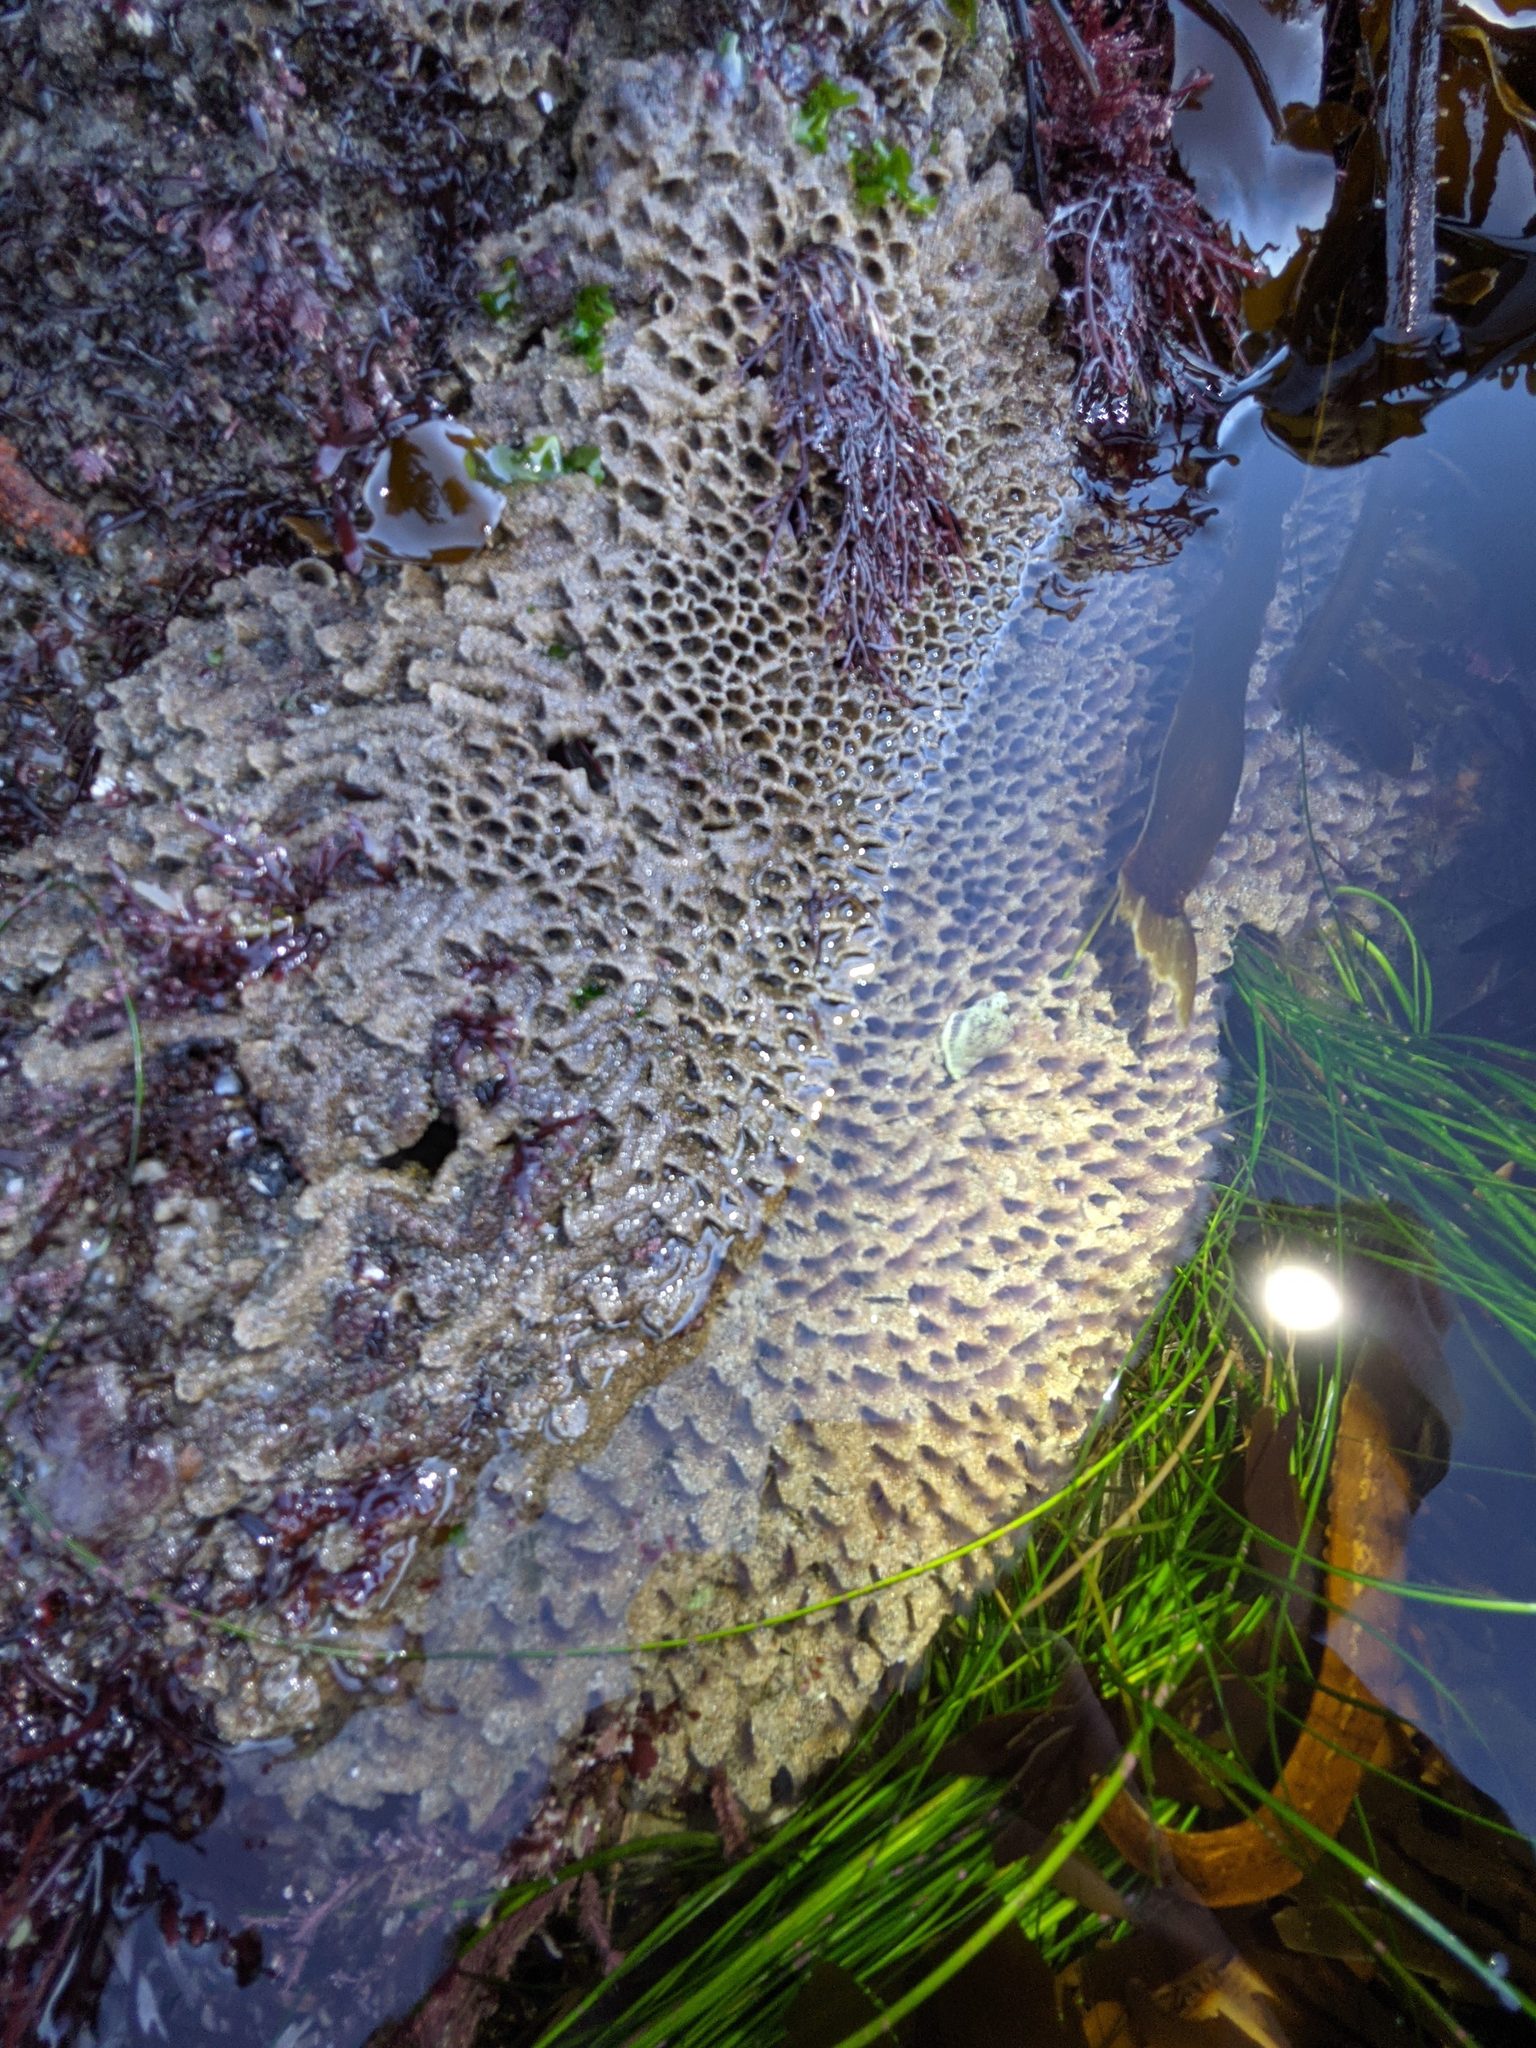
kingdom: Animalia
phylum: Annelida
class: Polychaeta
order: Sabellida
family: Sabellariidae
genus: Phragmatopoma
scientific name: Phragmatopoma californica
